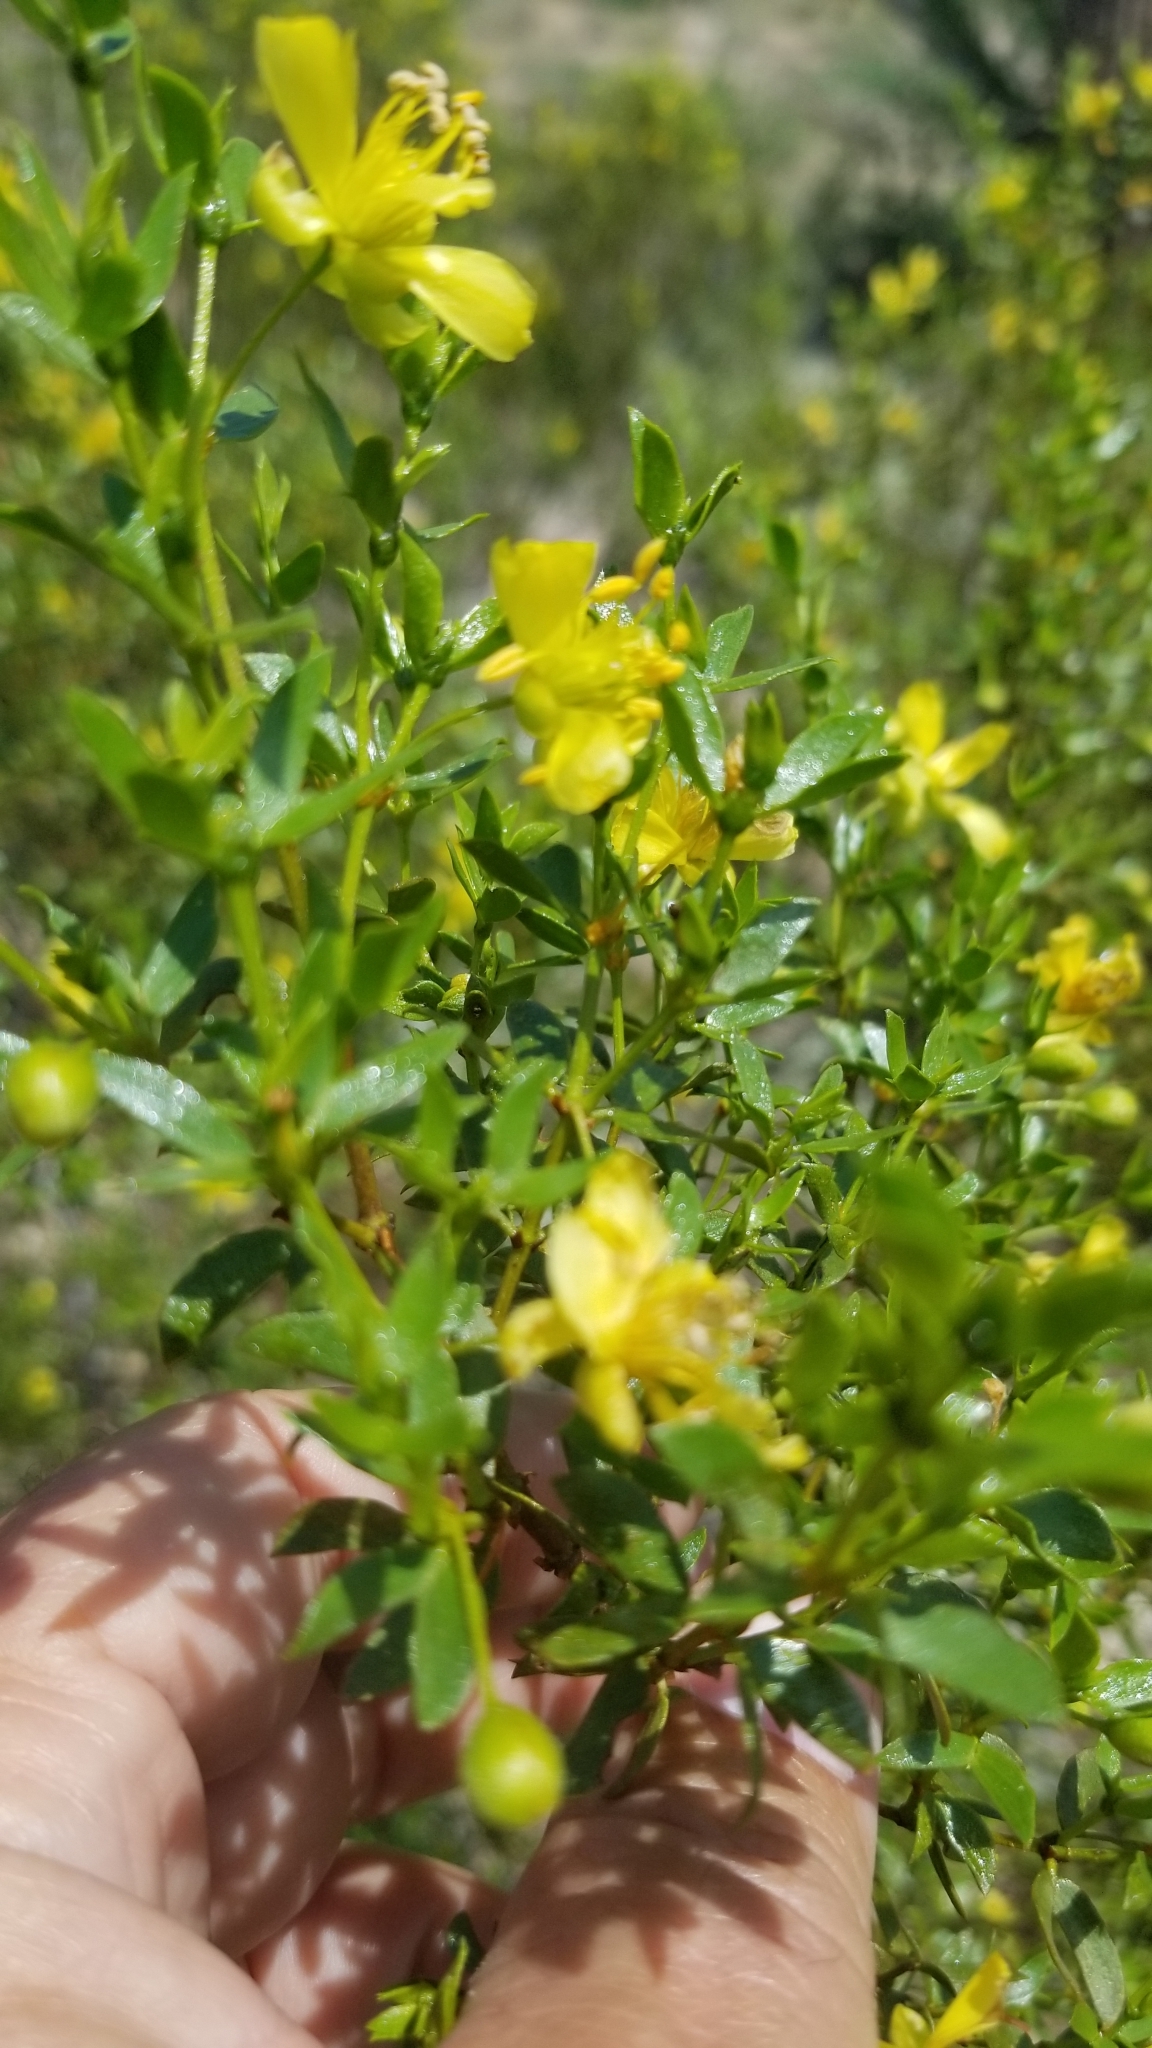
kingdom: Plantae
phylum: Tracheophyta
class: Magnoliopsida
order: Zygophyllales
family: Zygophyllaceae
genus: Larrea
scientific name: Larrea tridentata
